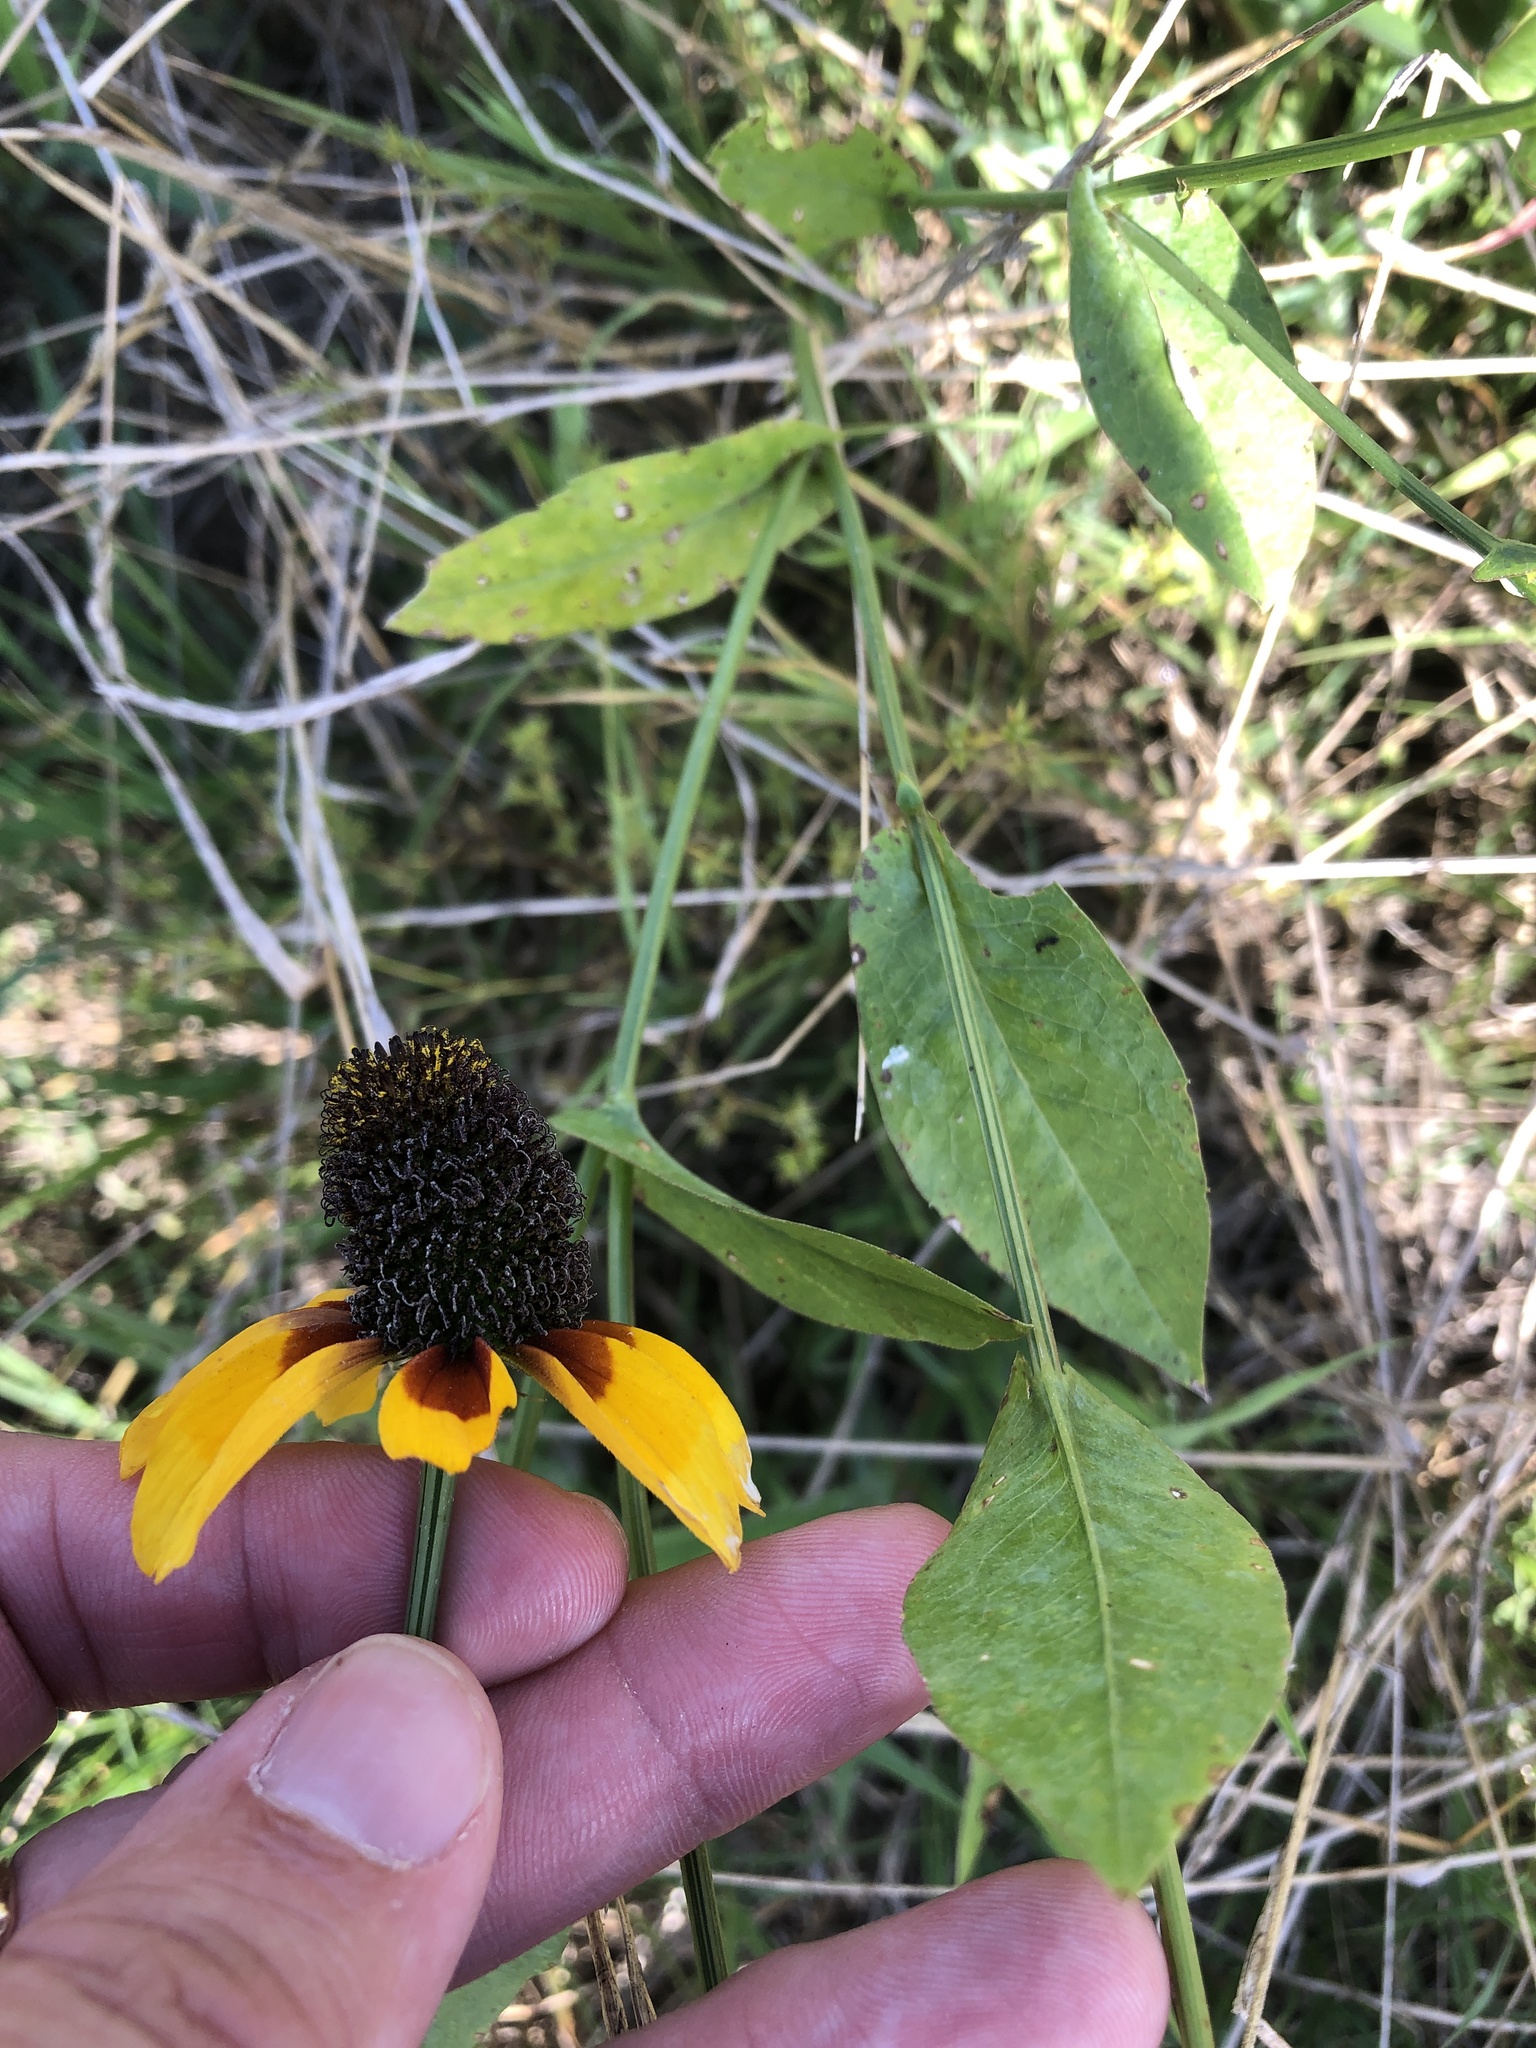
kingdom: Plantae
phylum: Tracheophyta
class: Magnoliopsida
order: Asterales
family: Asteraceae
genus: Rudbeckia
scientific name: Rudbeckia amplexicaulis
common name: Clasping-leaf coneflower
